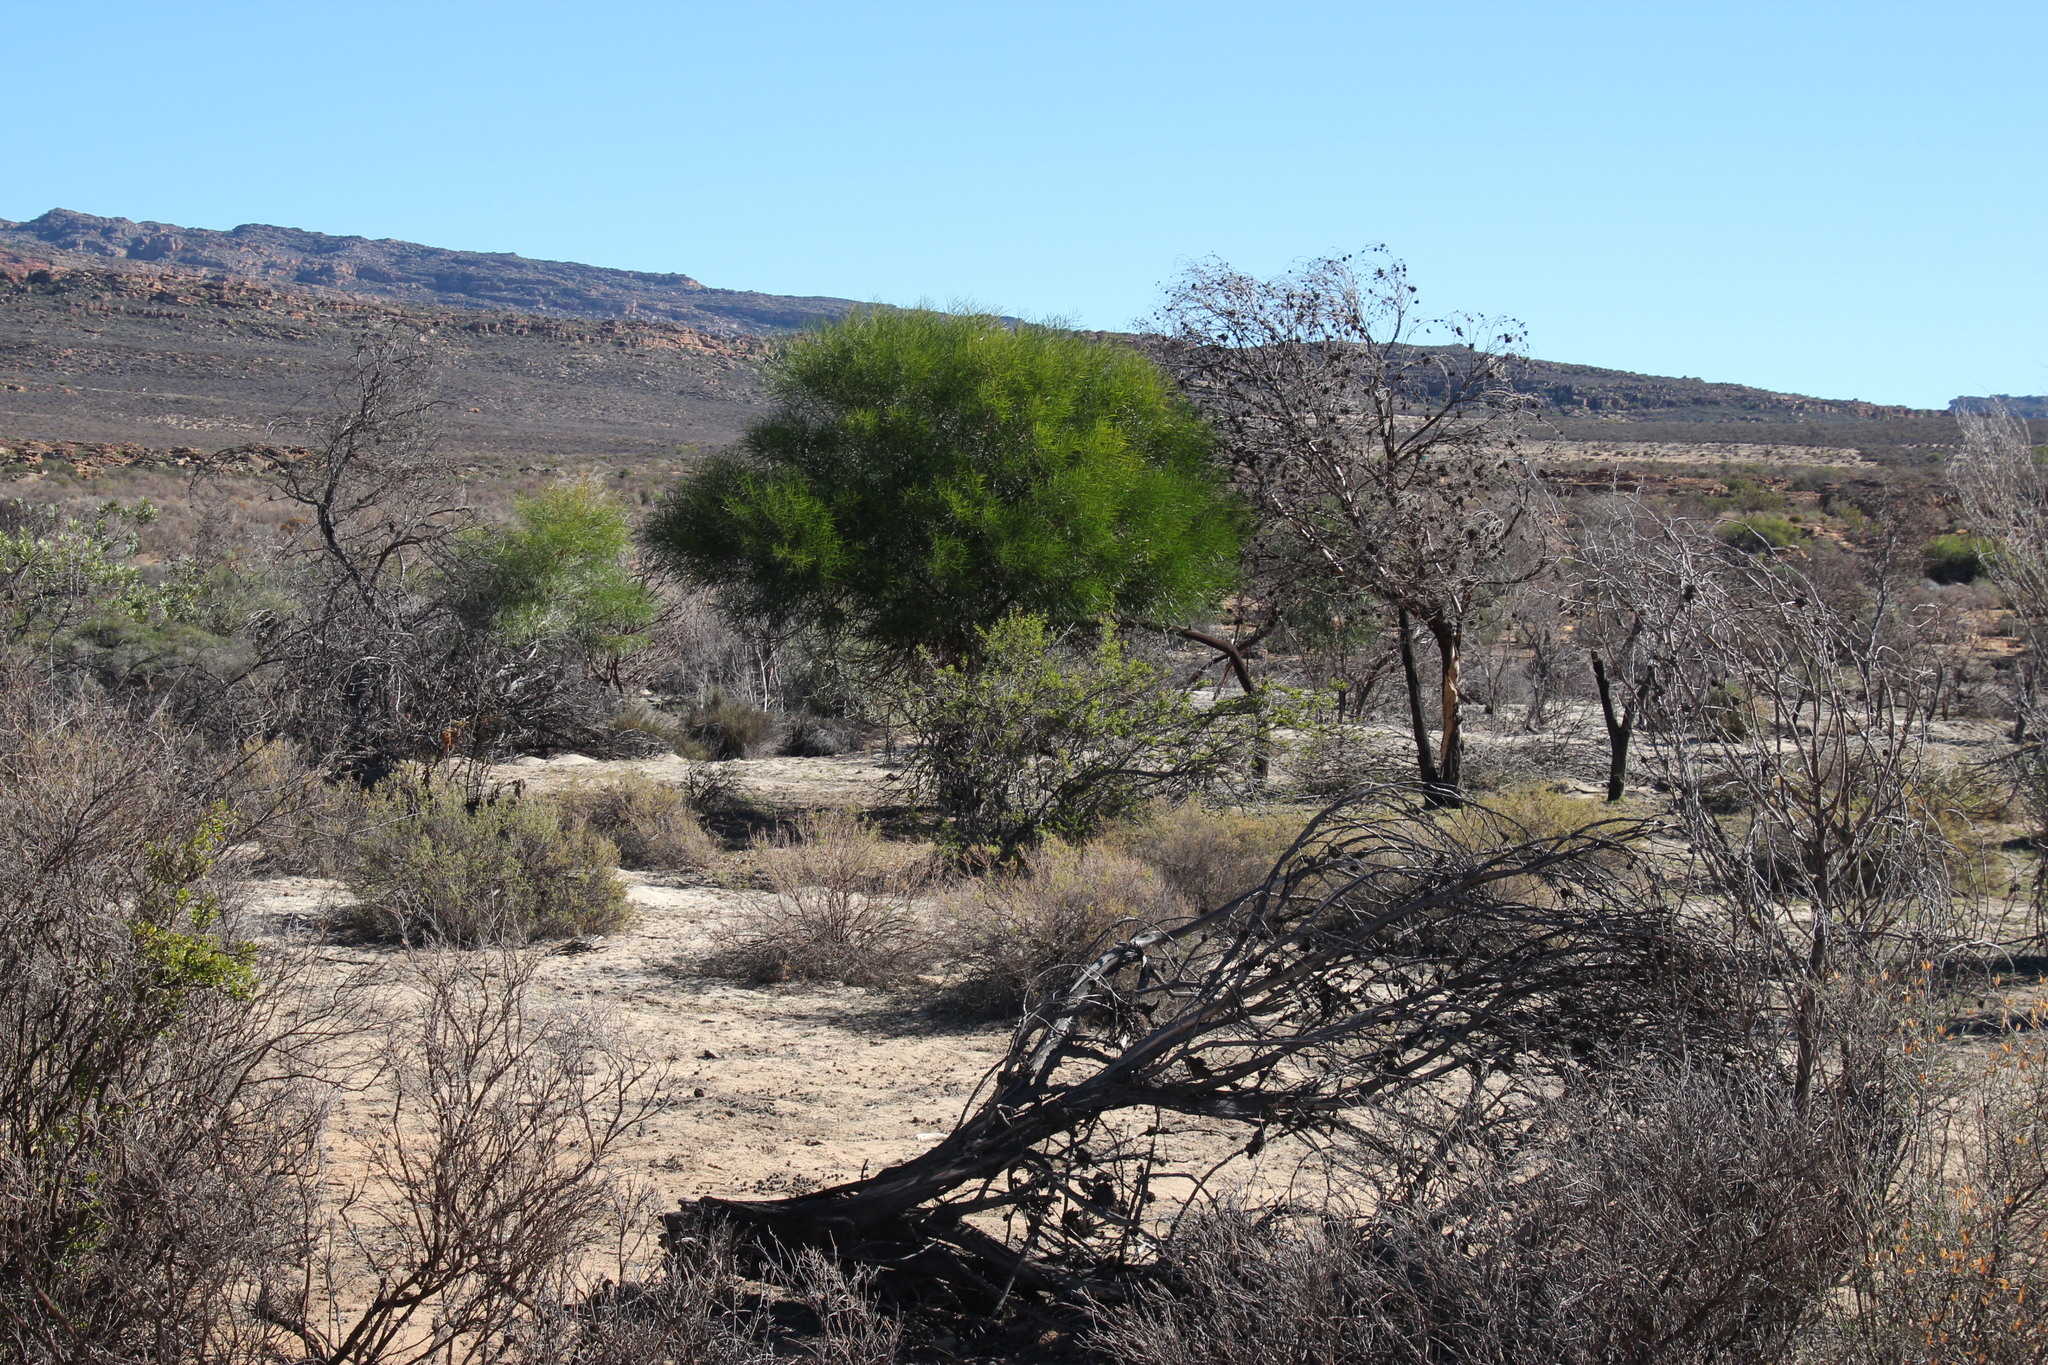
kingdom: Plantae
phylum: Tracheophyta
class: Magnoliopsida
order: Fabales
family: Fabaceae
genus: Acacia
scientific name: Acacia saligna
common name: Orange wattle
